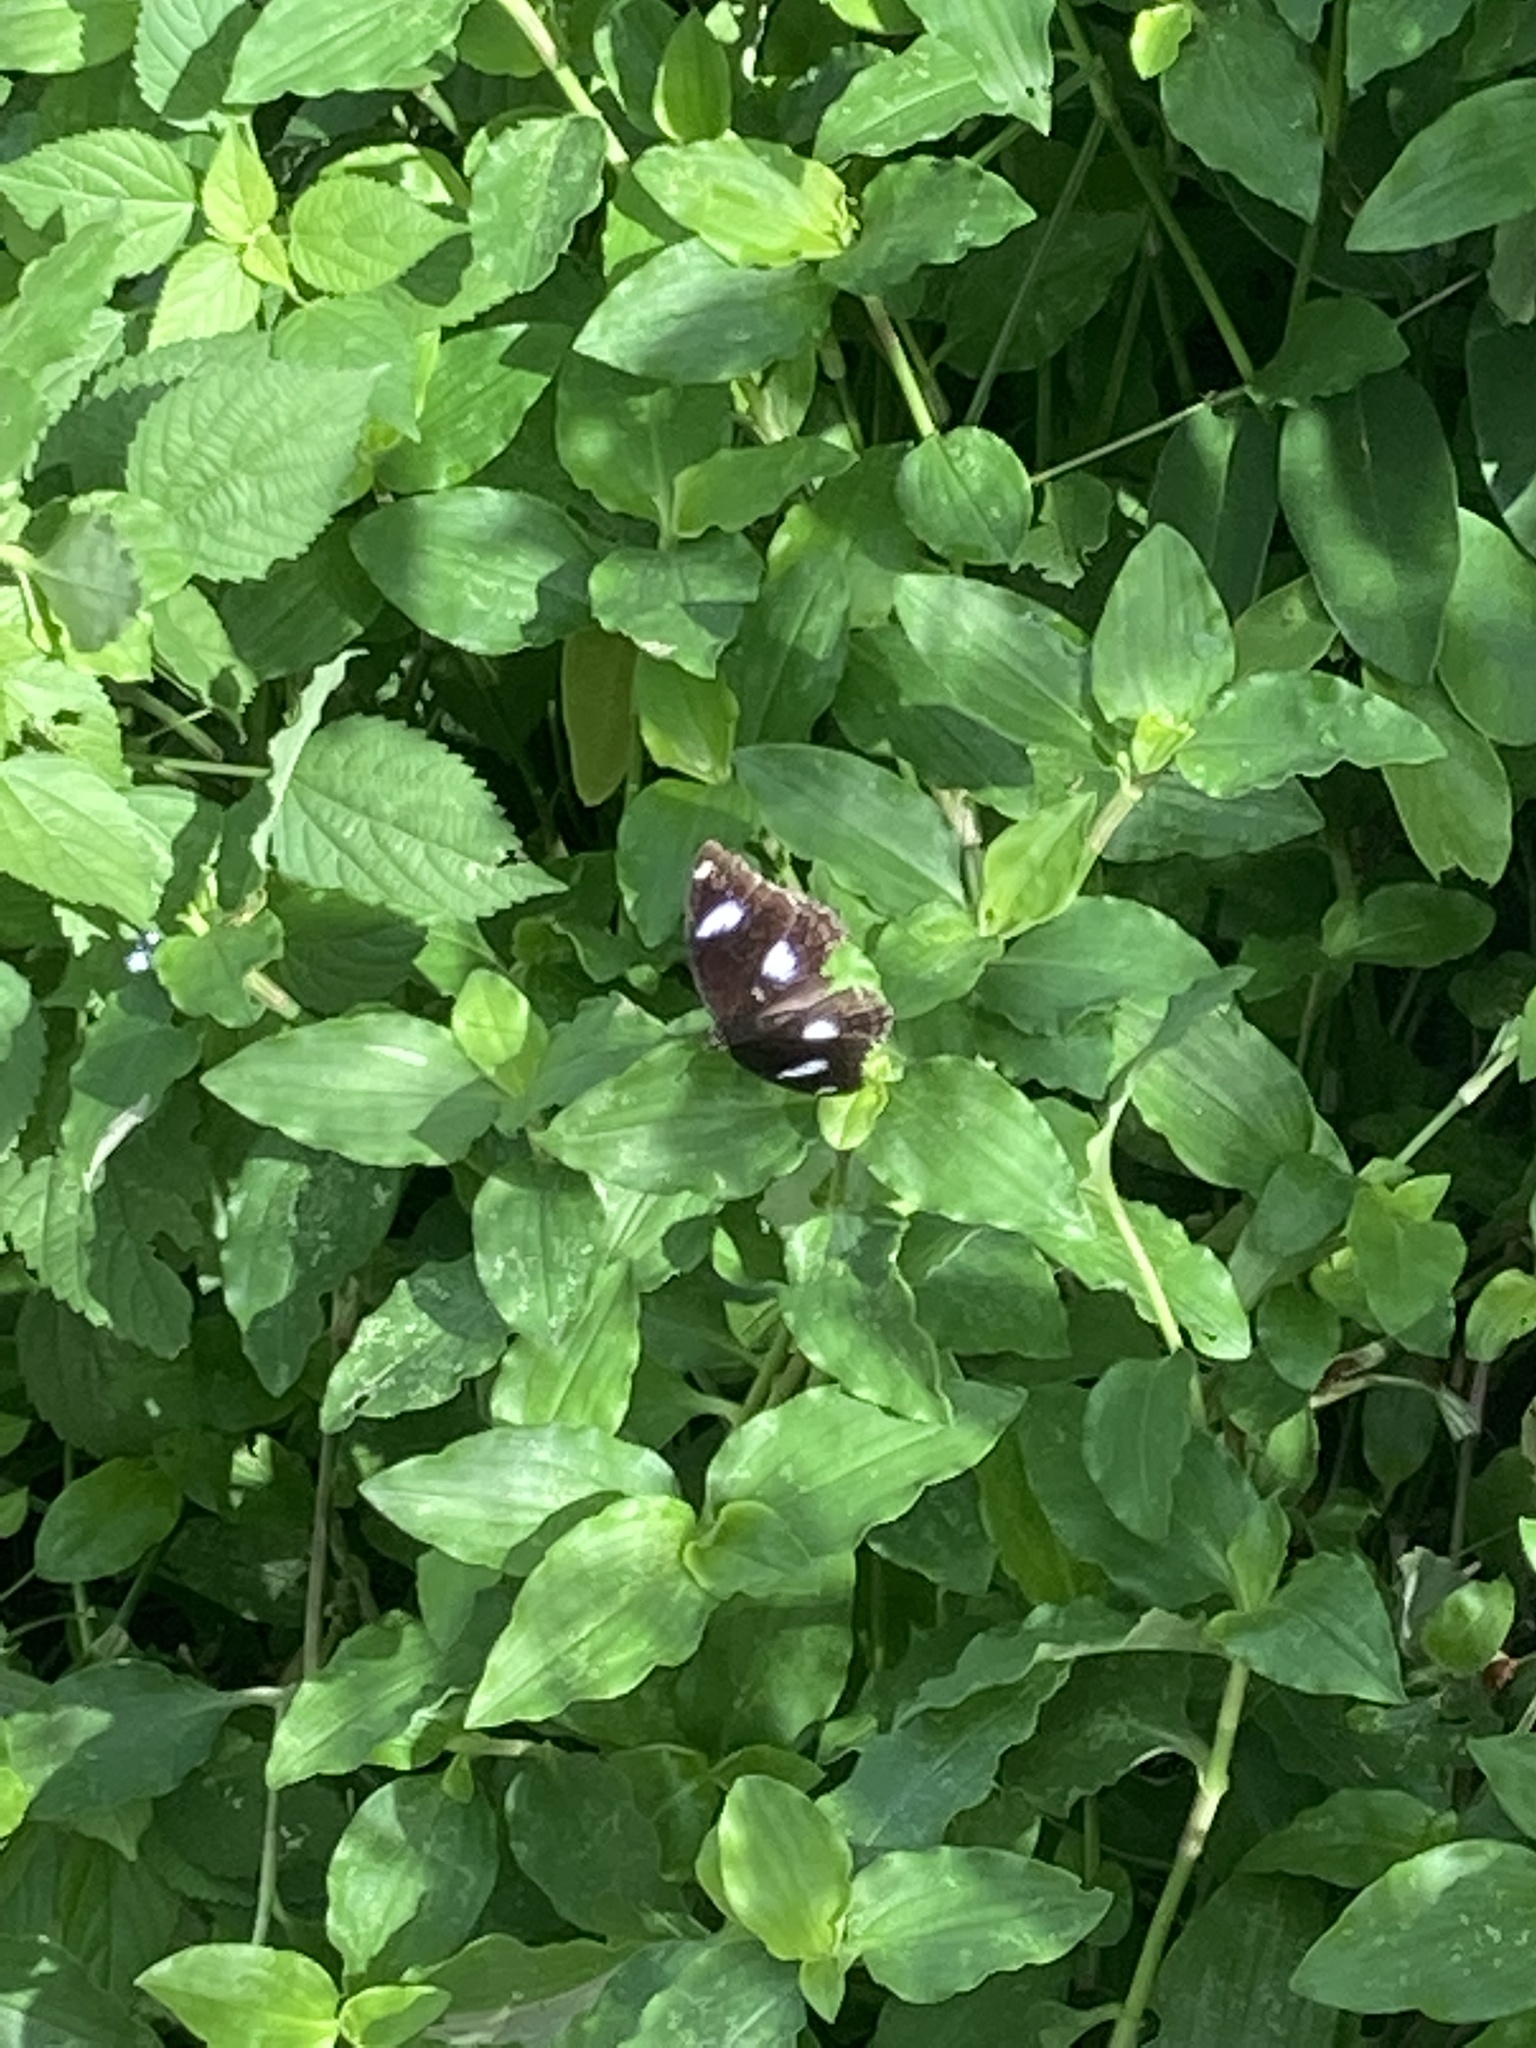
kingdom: Animalia
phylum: Arthropoda
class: Insecta
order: Lepidoptera
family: Nymphalidae
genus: Hypolimnas
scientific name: Hypolimnas bolina
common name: Great eggfly
